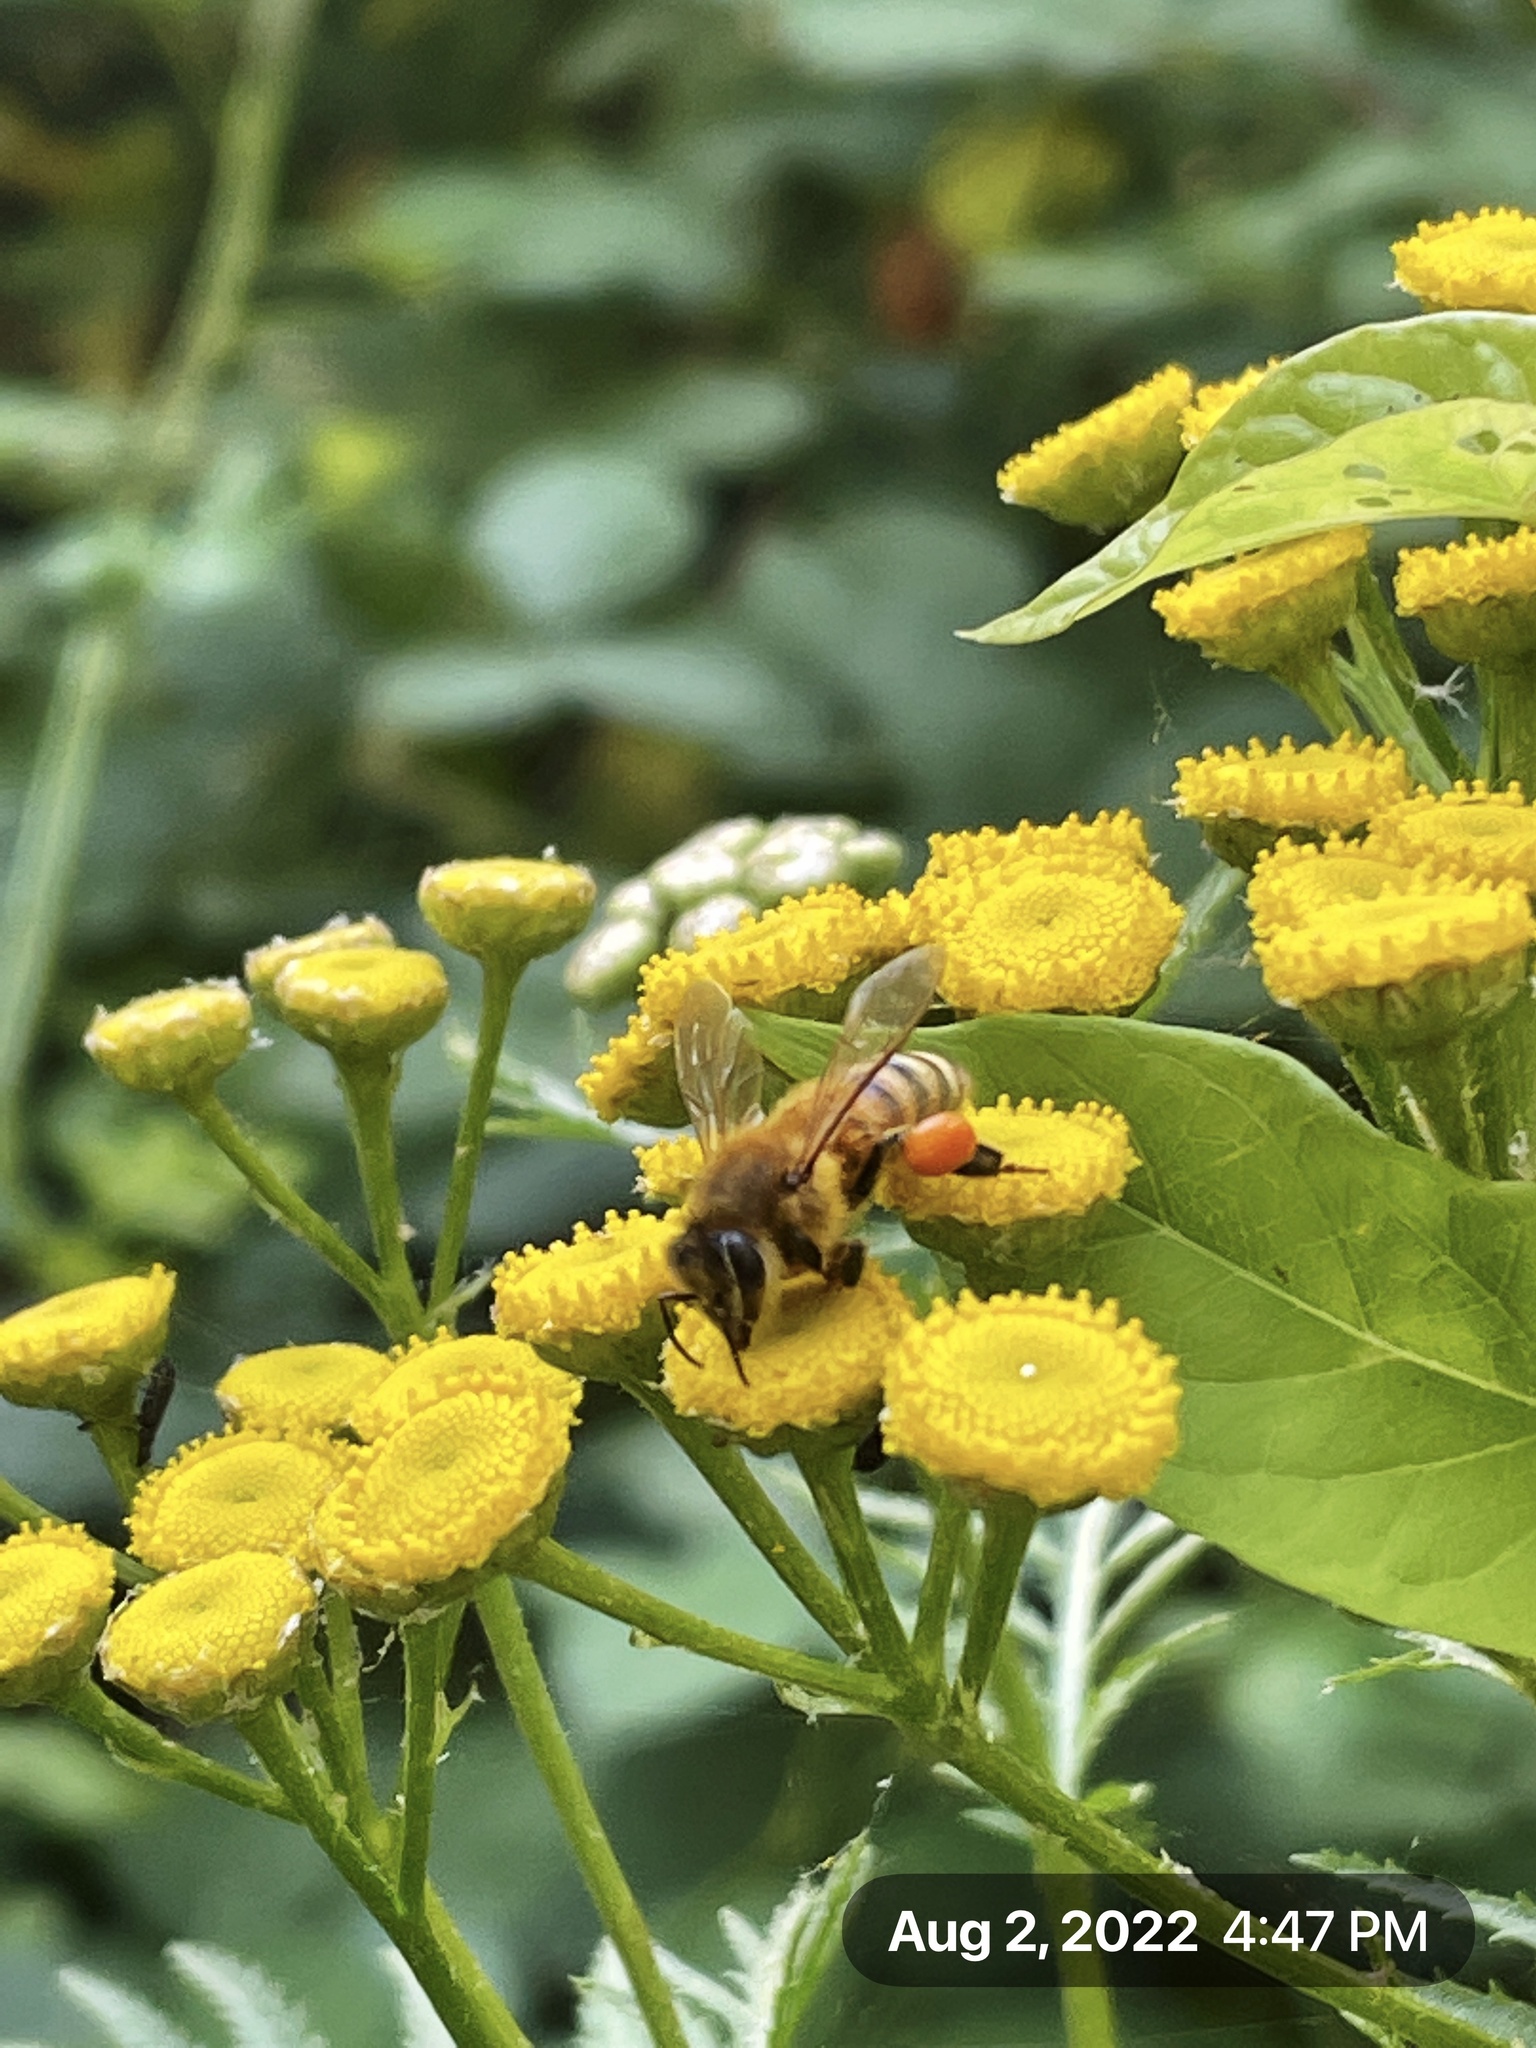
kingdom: Animalia
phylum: Arthropoda
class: Insecta
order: Hymenoptera
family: Apidae
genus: Apis
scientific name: Apis mellifera
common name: Honey bee
